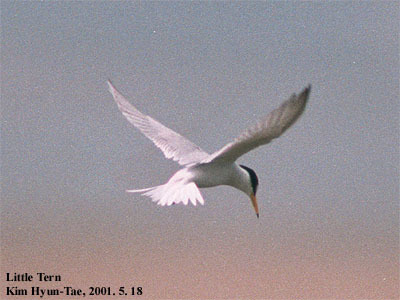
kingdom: Animalia
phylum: Chordata
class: Aves
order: Charadriiformes
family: Laridae
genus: Sternula
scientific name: Sternula albifrons
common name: Little tern
